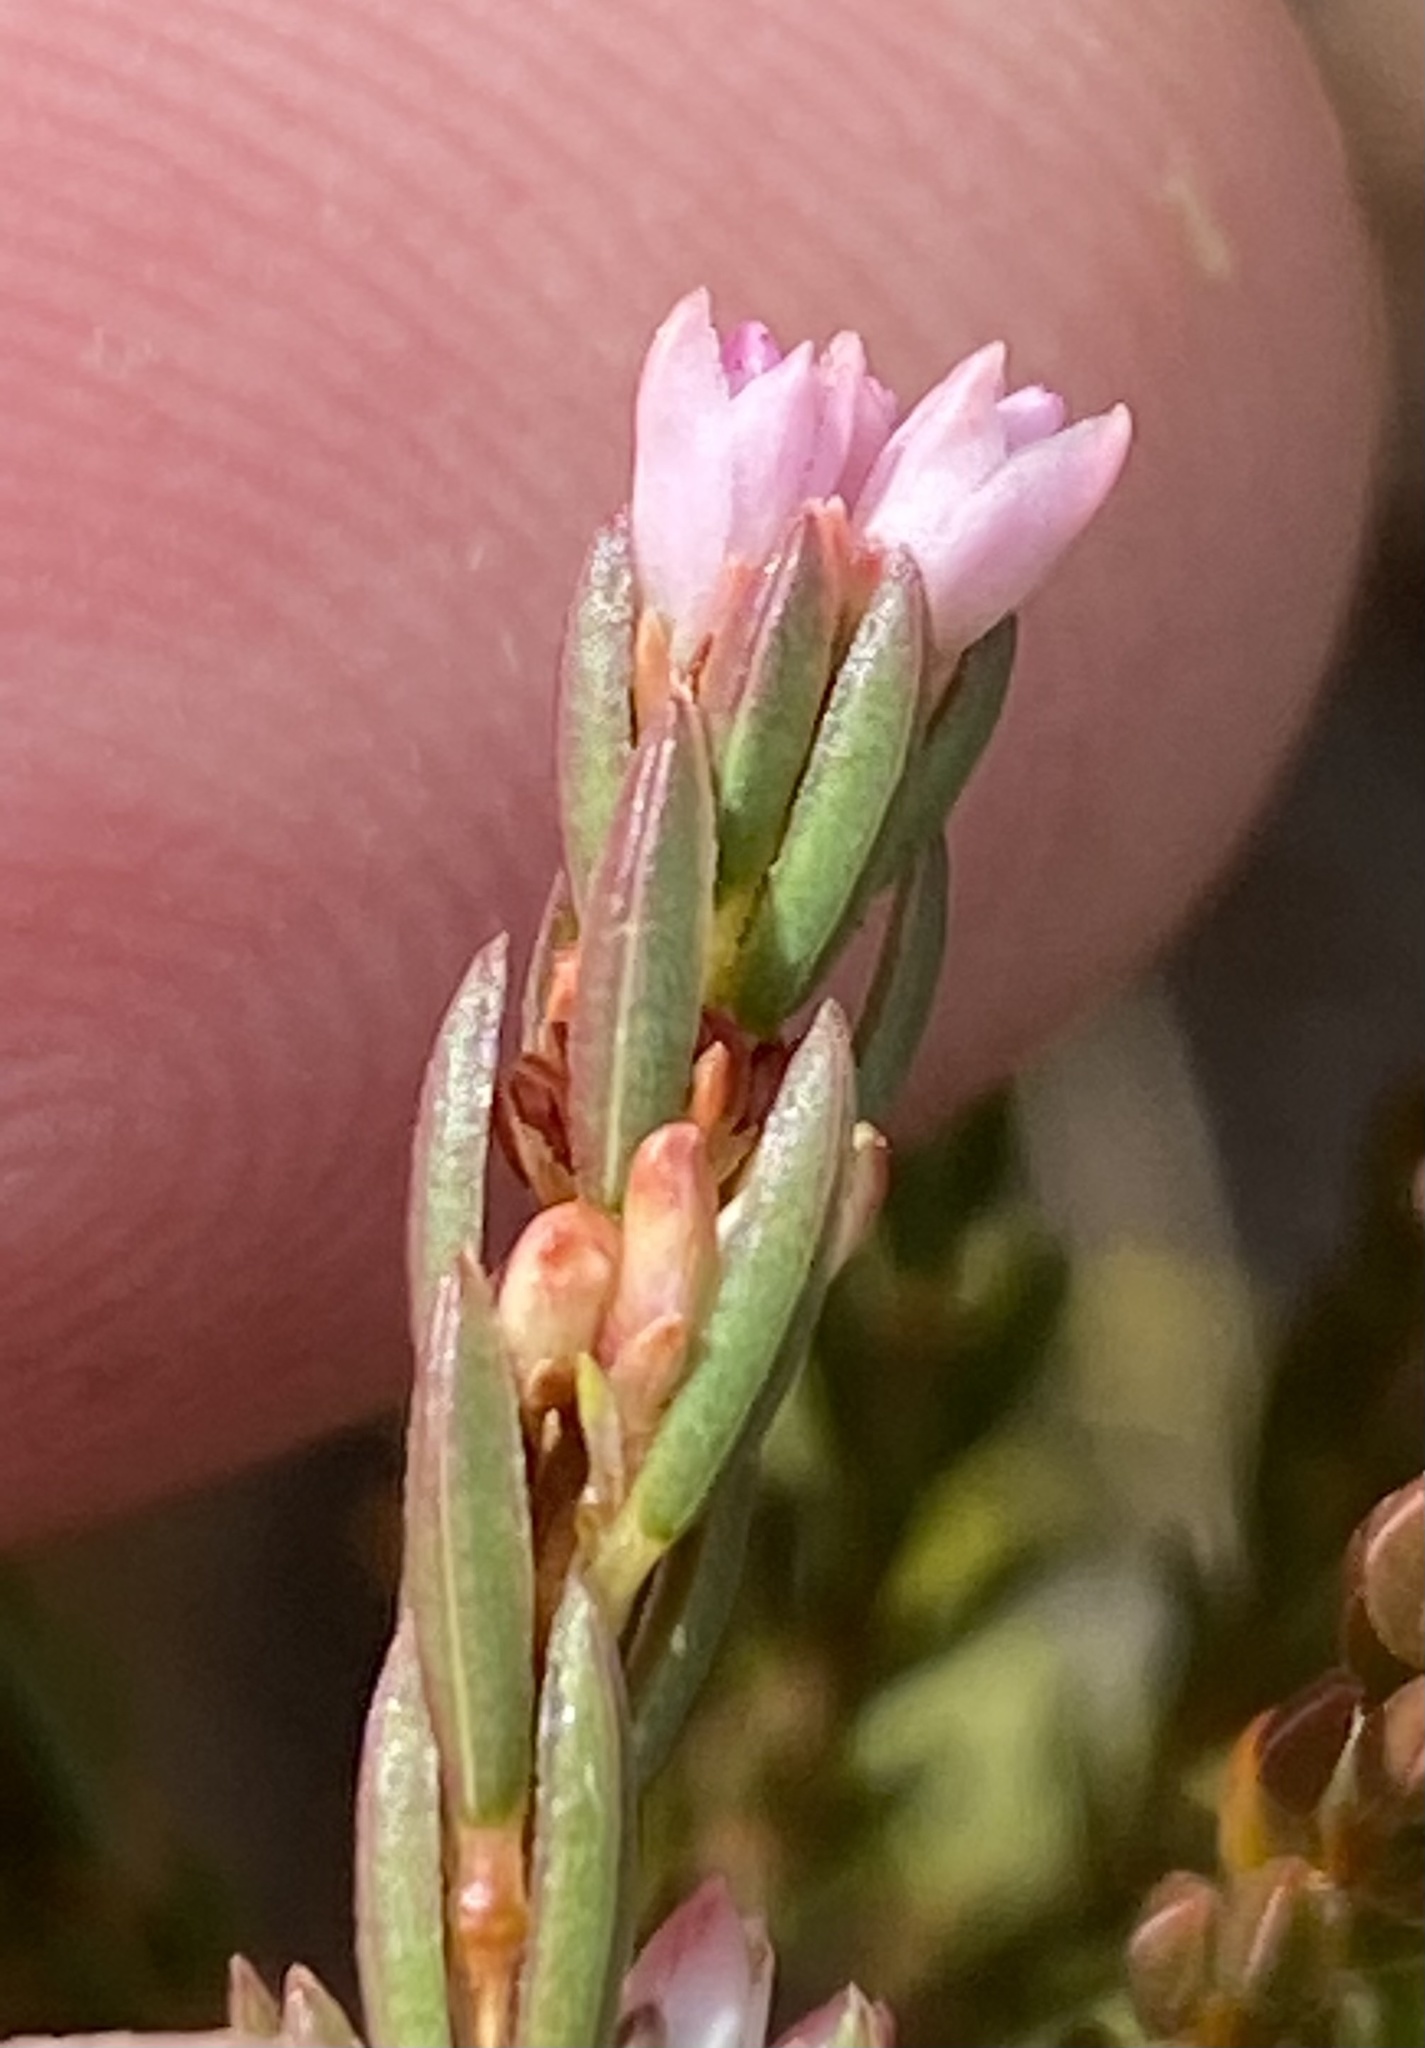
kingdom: Plantae
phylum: Tracheophyta
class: Magnoliopsida
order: Ericales
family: Ericaceae
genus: Erica
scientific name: Erica articularis
